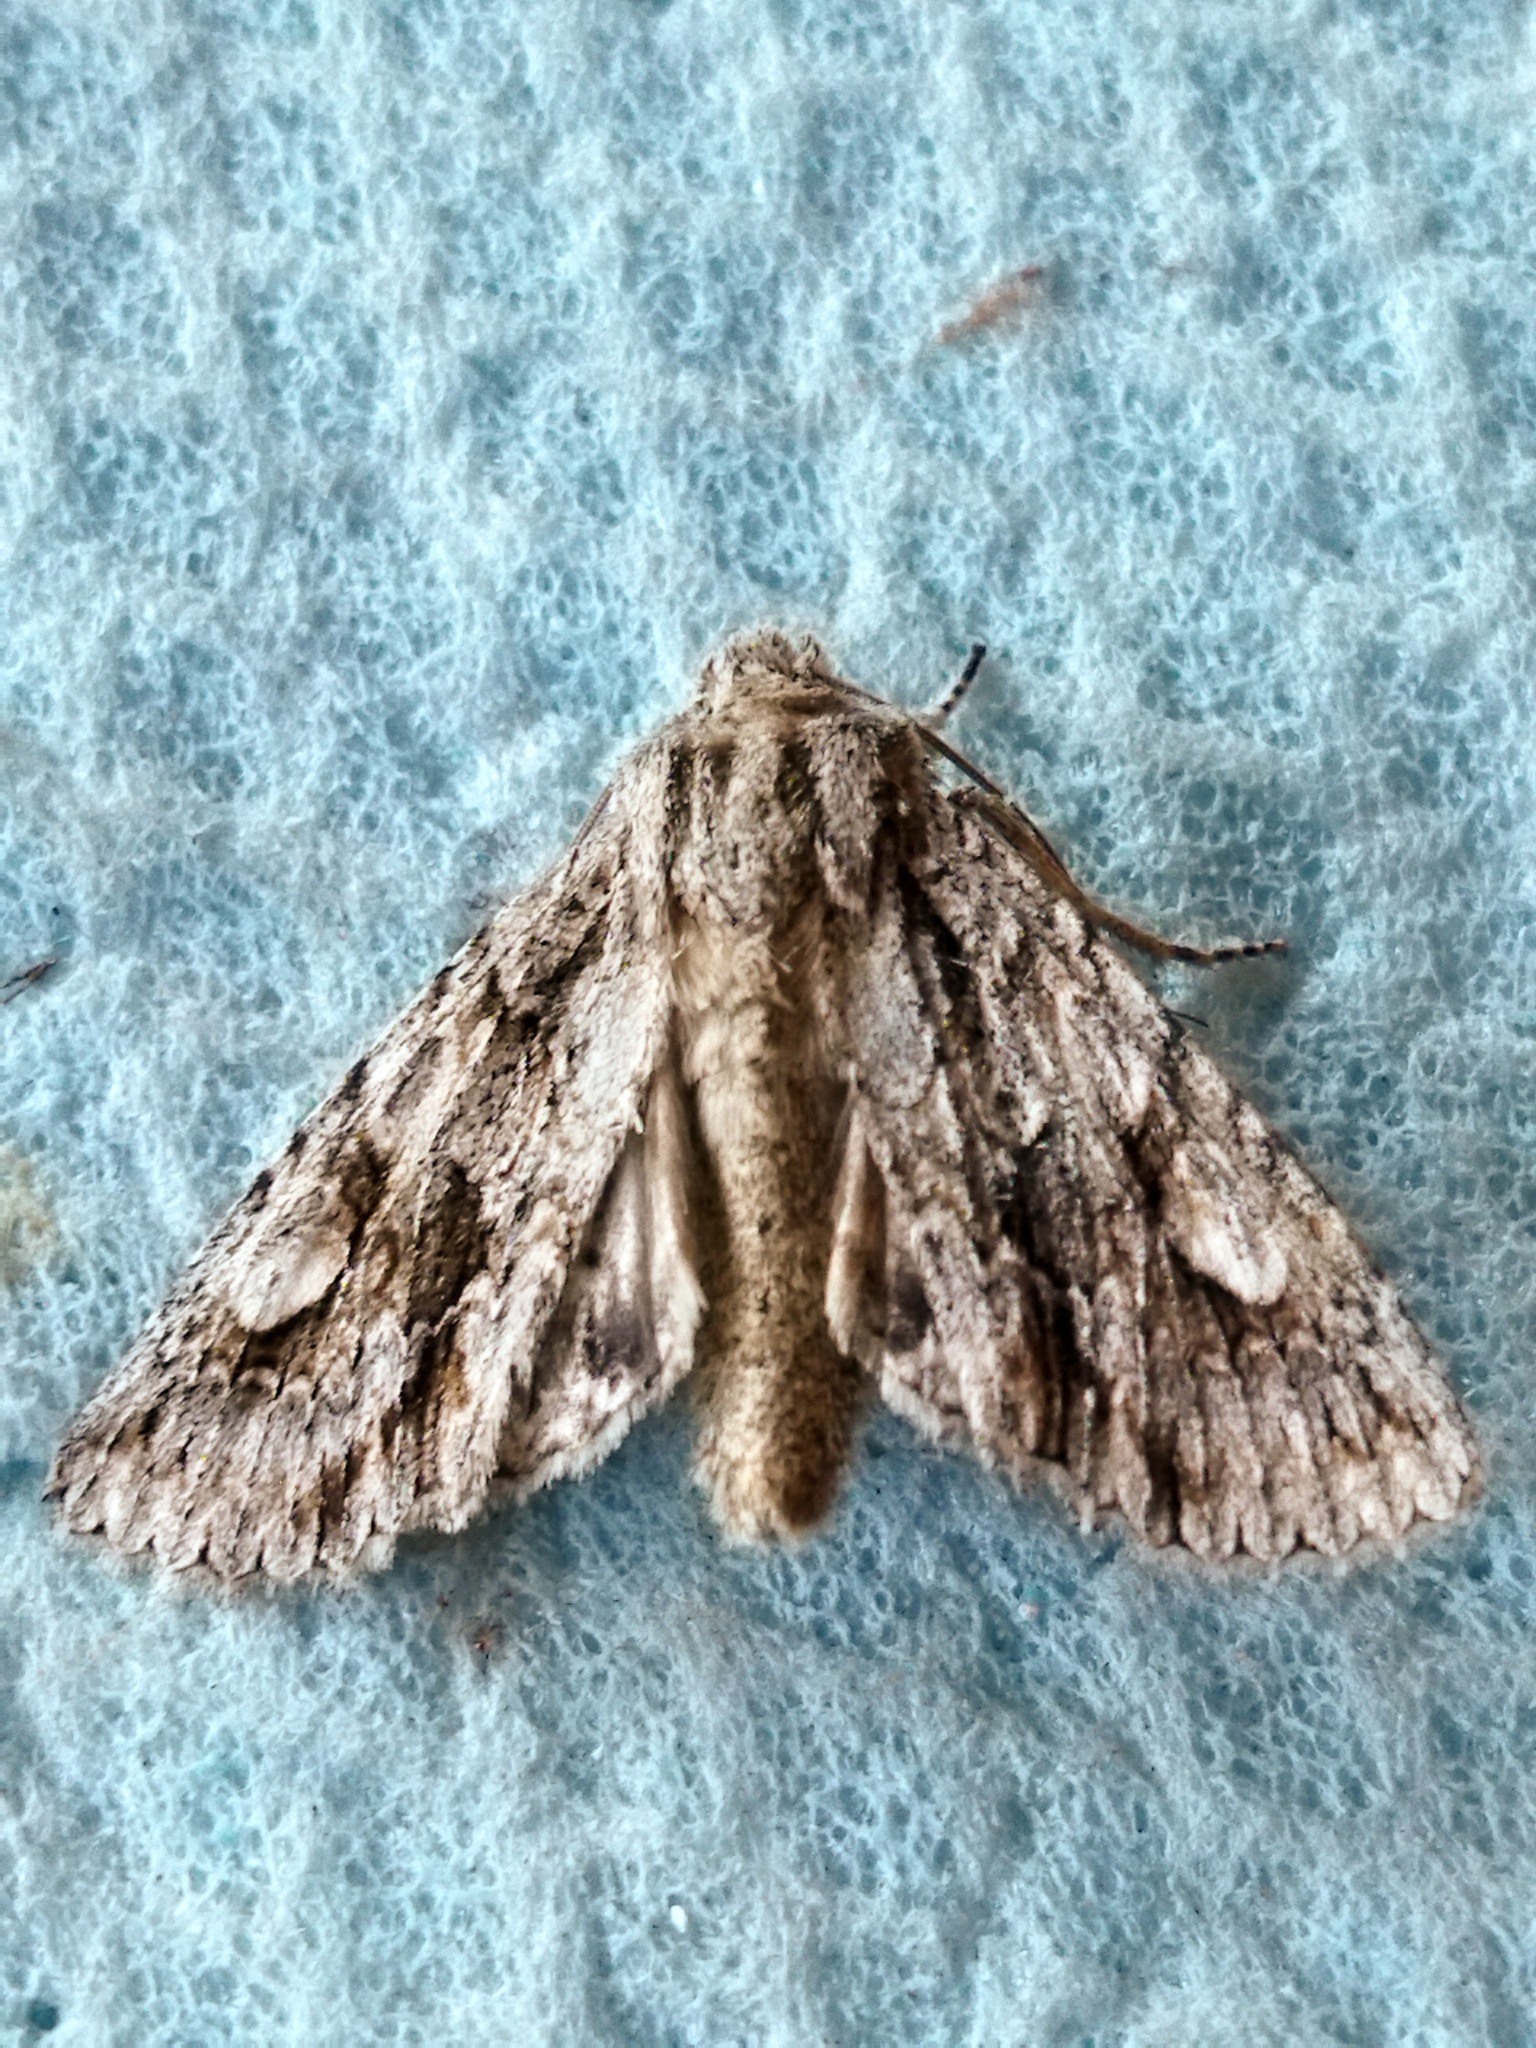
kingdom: Animalia
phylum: Arthropoda
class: Insecta
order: Lepidoptera
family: Noctuidae
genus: Meganephria
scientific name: Meganephria bimaculosa
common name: Double-spot brocade
